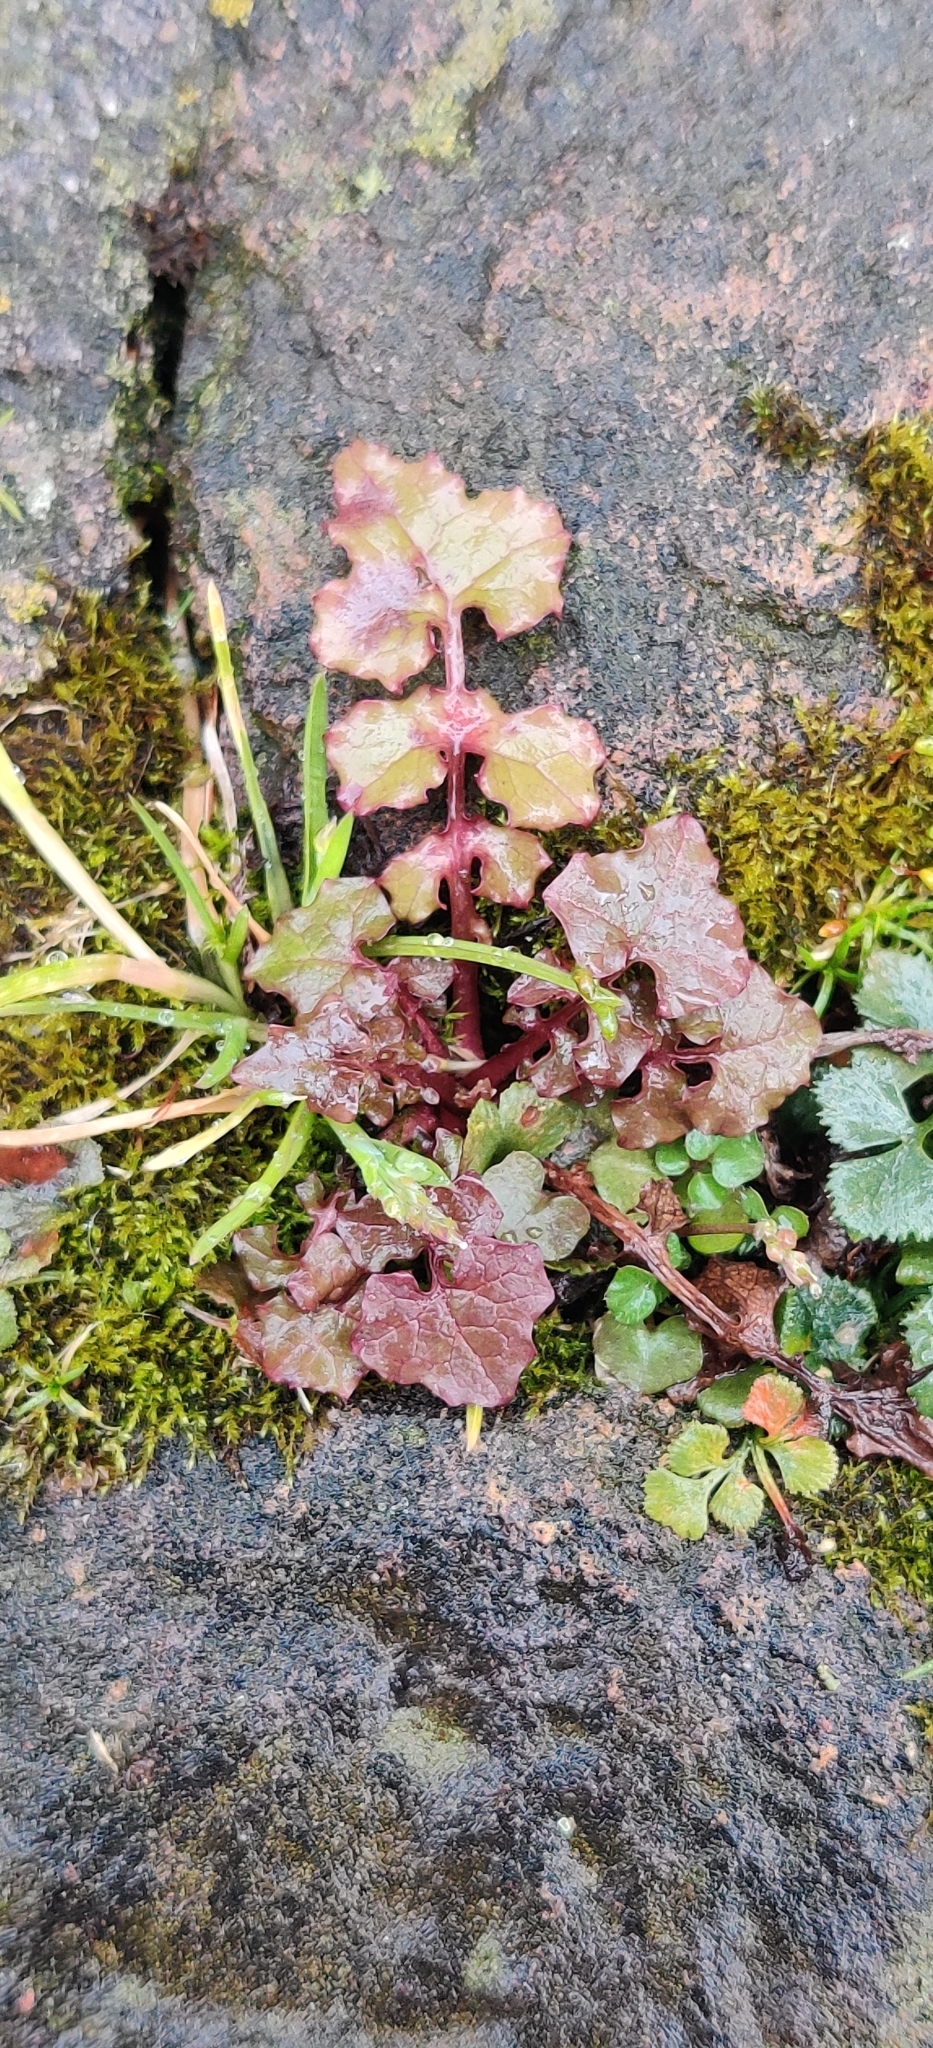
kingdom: Plantae
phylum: Tracheophyta
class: Magnoliopsida
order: Asterales
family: Asteraceae
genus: Mycelis
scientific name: Mycelis muralis
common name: Wall lettuce
